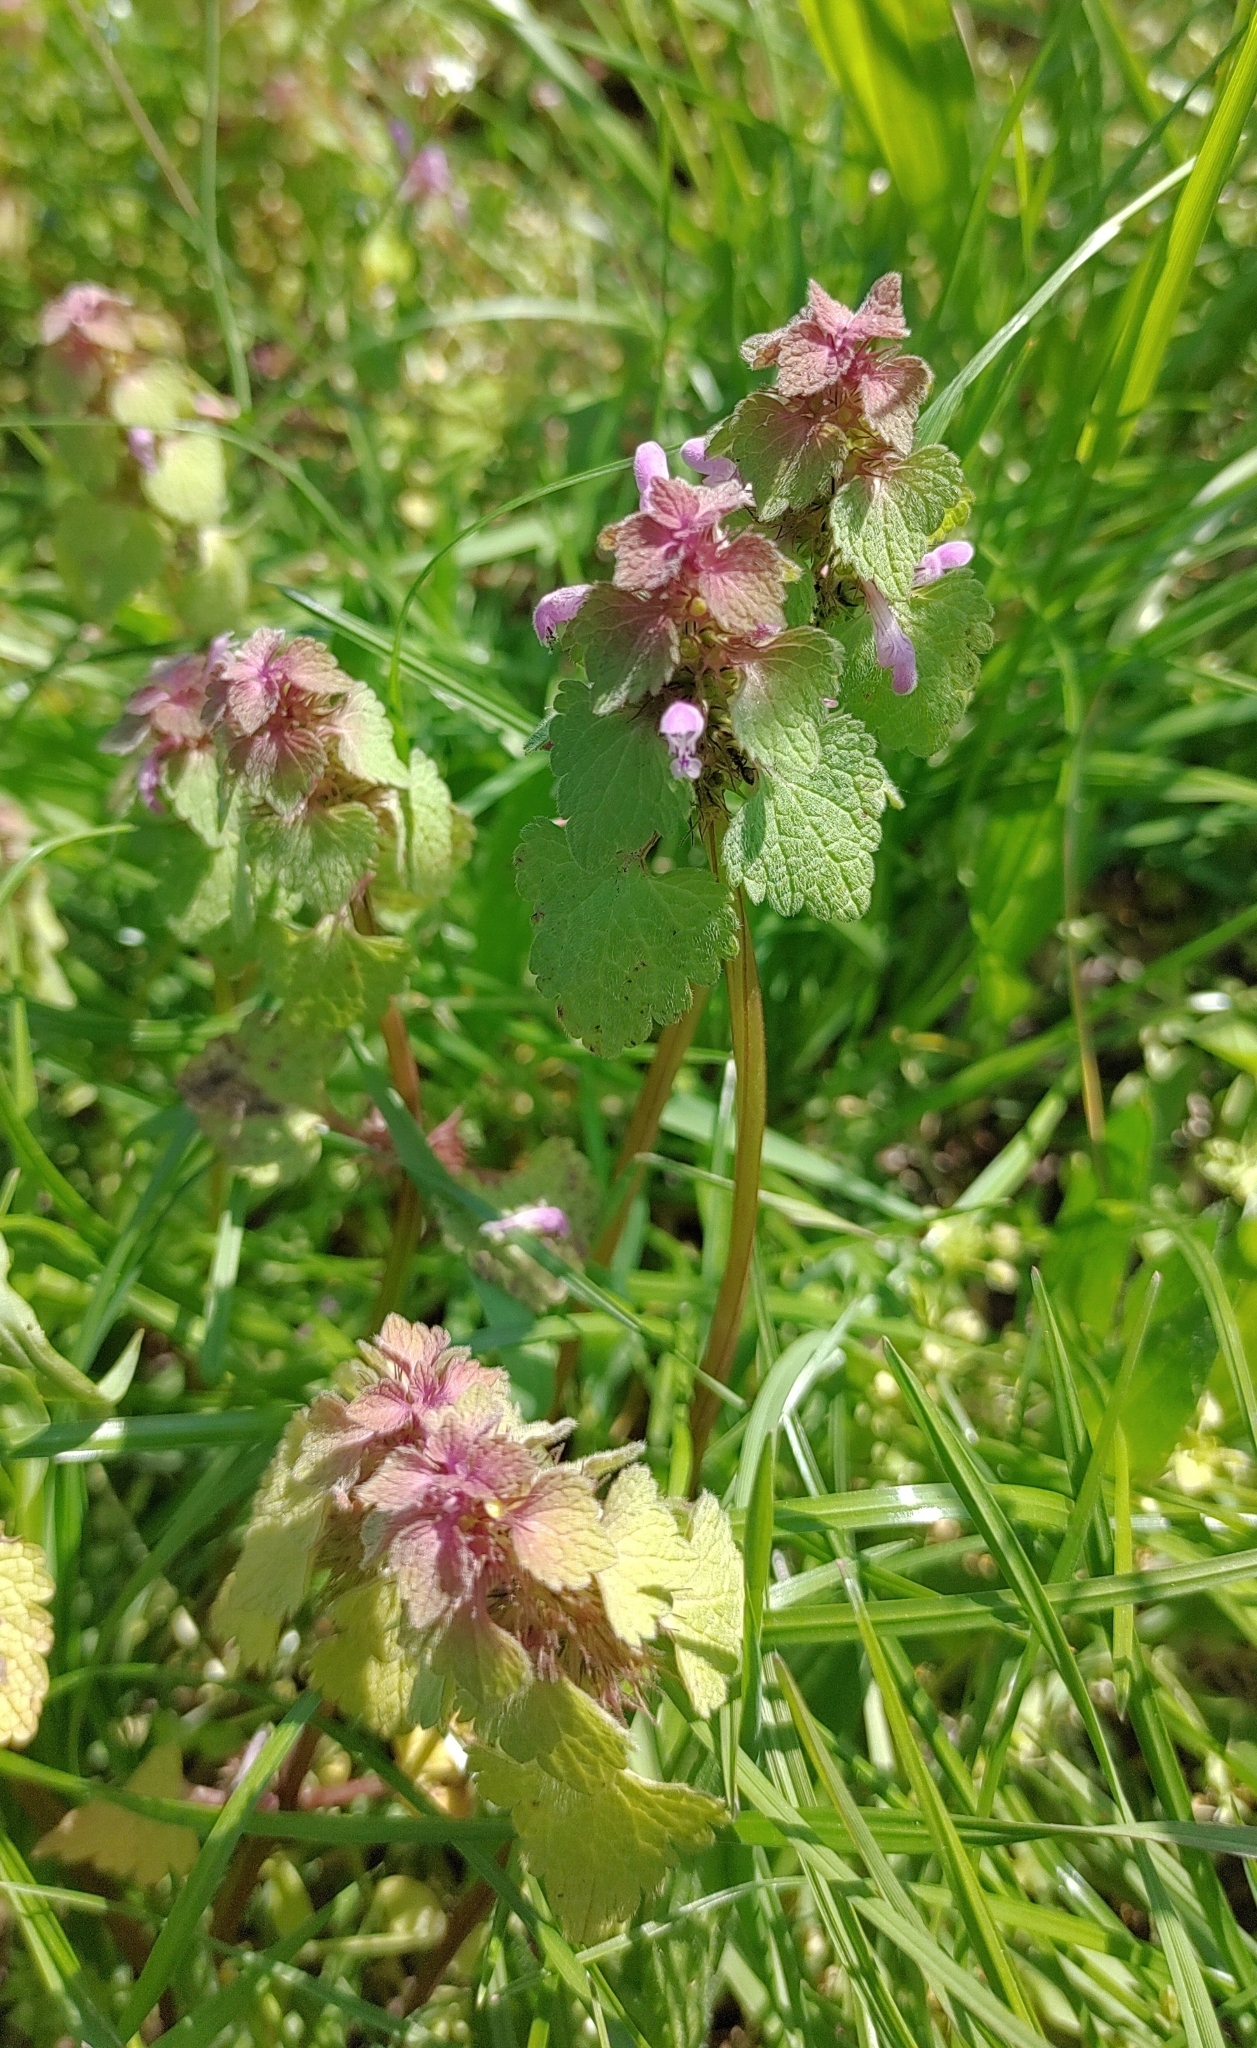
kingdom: Plantae
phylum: Tracheophyta
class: Magnoliopsida
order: Lamiales
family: Lamiaceae
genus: Lamium
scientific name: Lamium purpureum
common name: Red dead-nettle
